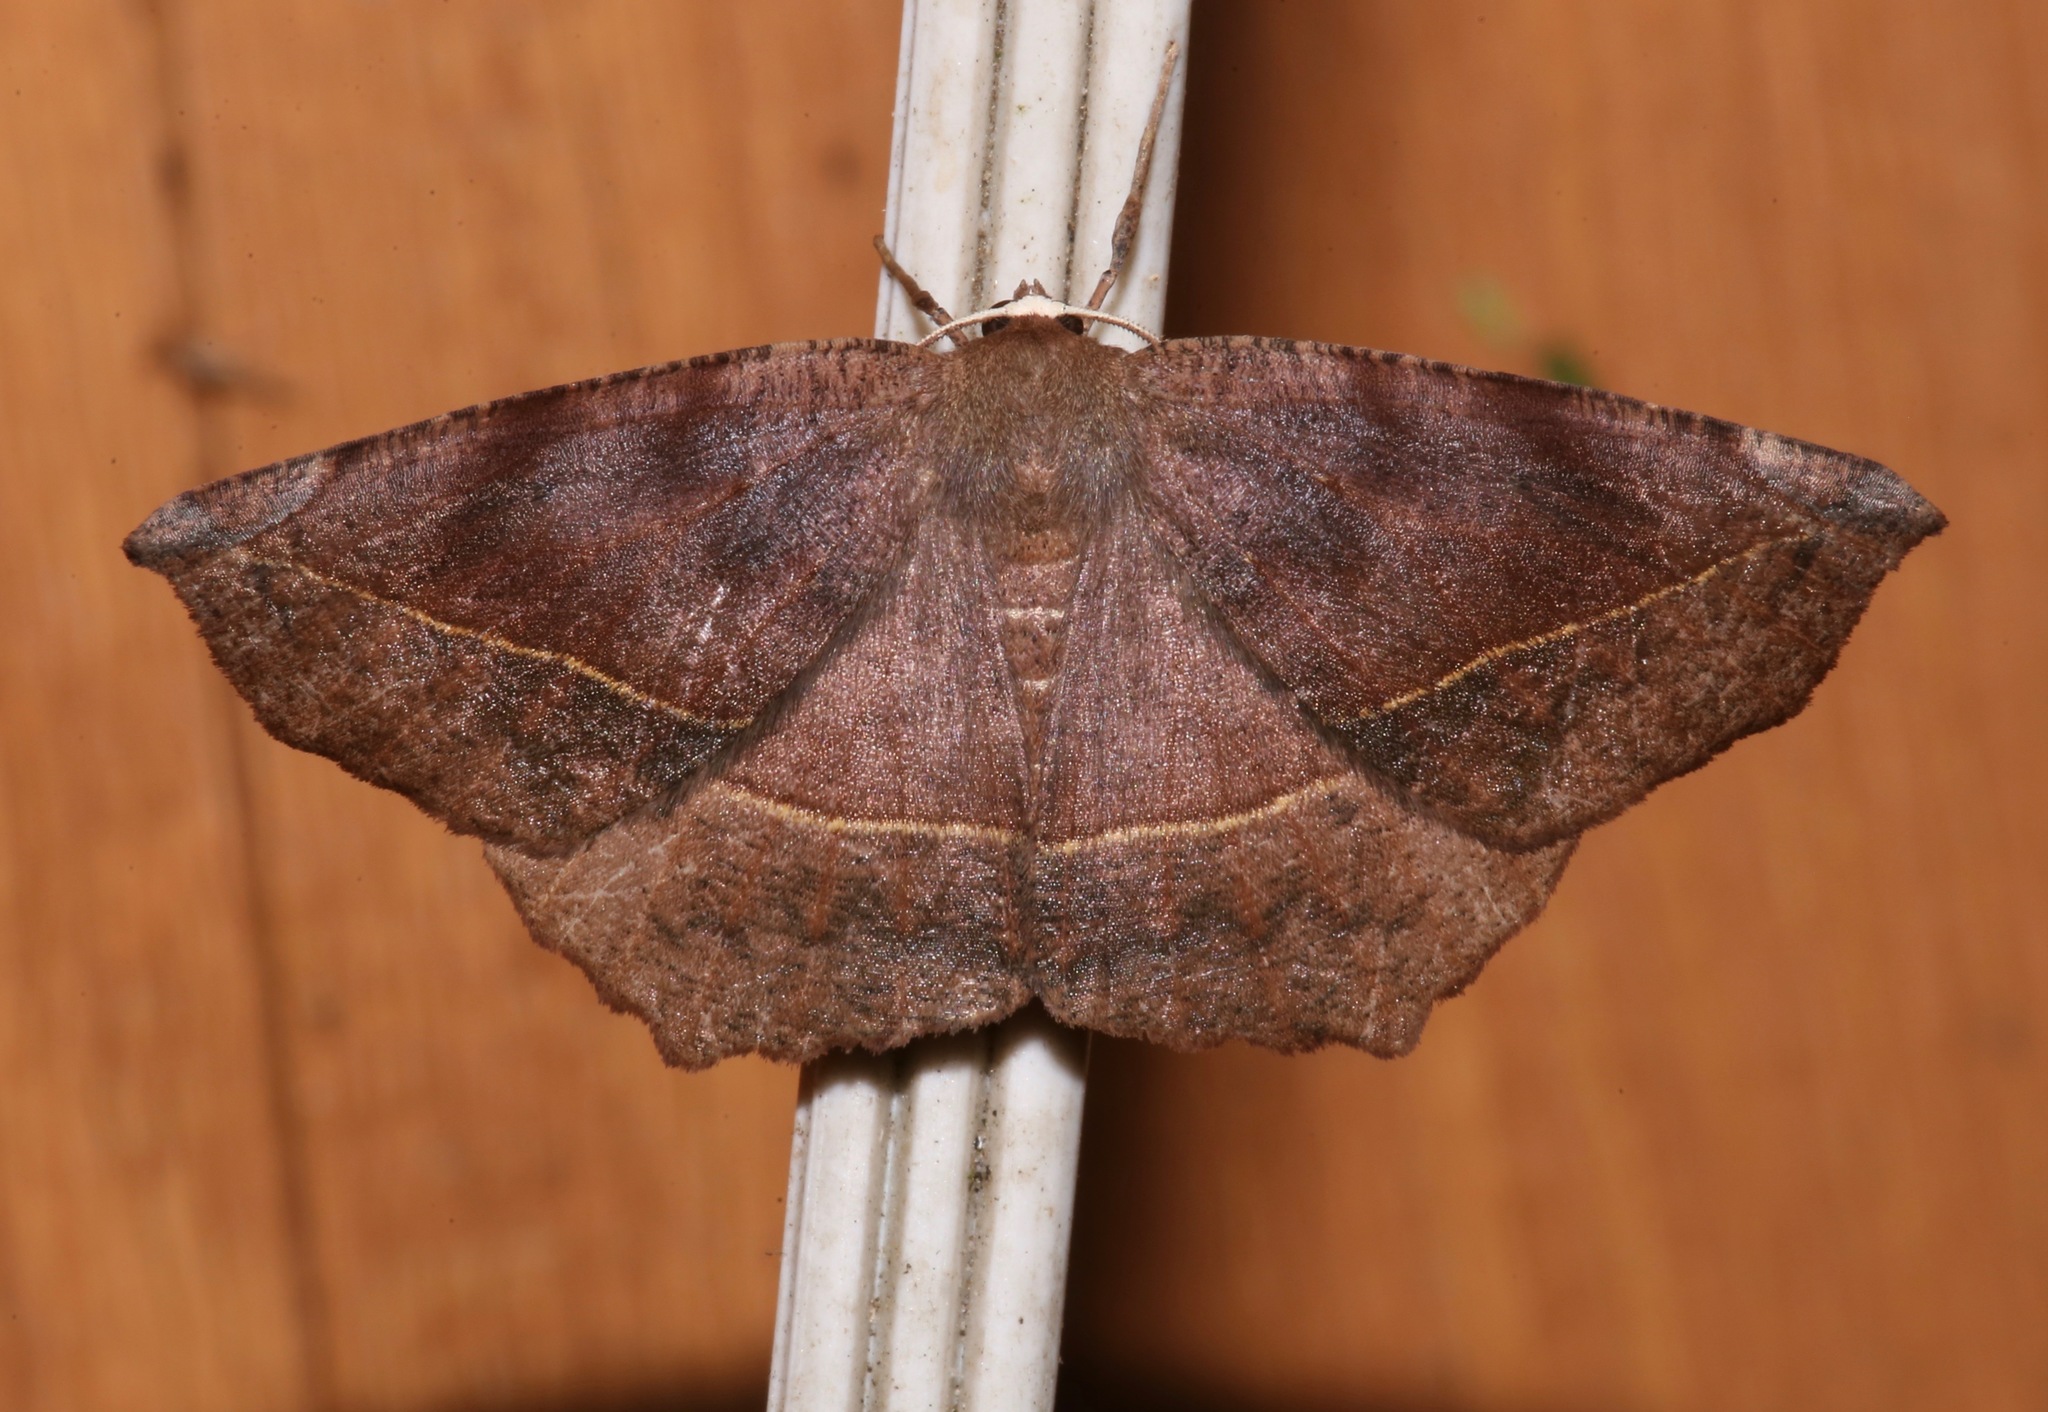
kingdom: Animalia
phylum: Arthropoda
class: Insecta
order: Lepidoptera
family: Geometridae
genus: Eutrapela
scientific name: Eutrapela clemataria
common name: Curved-toothed geometer
